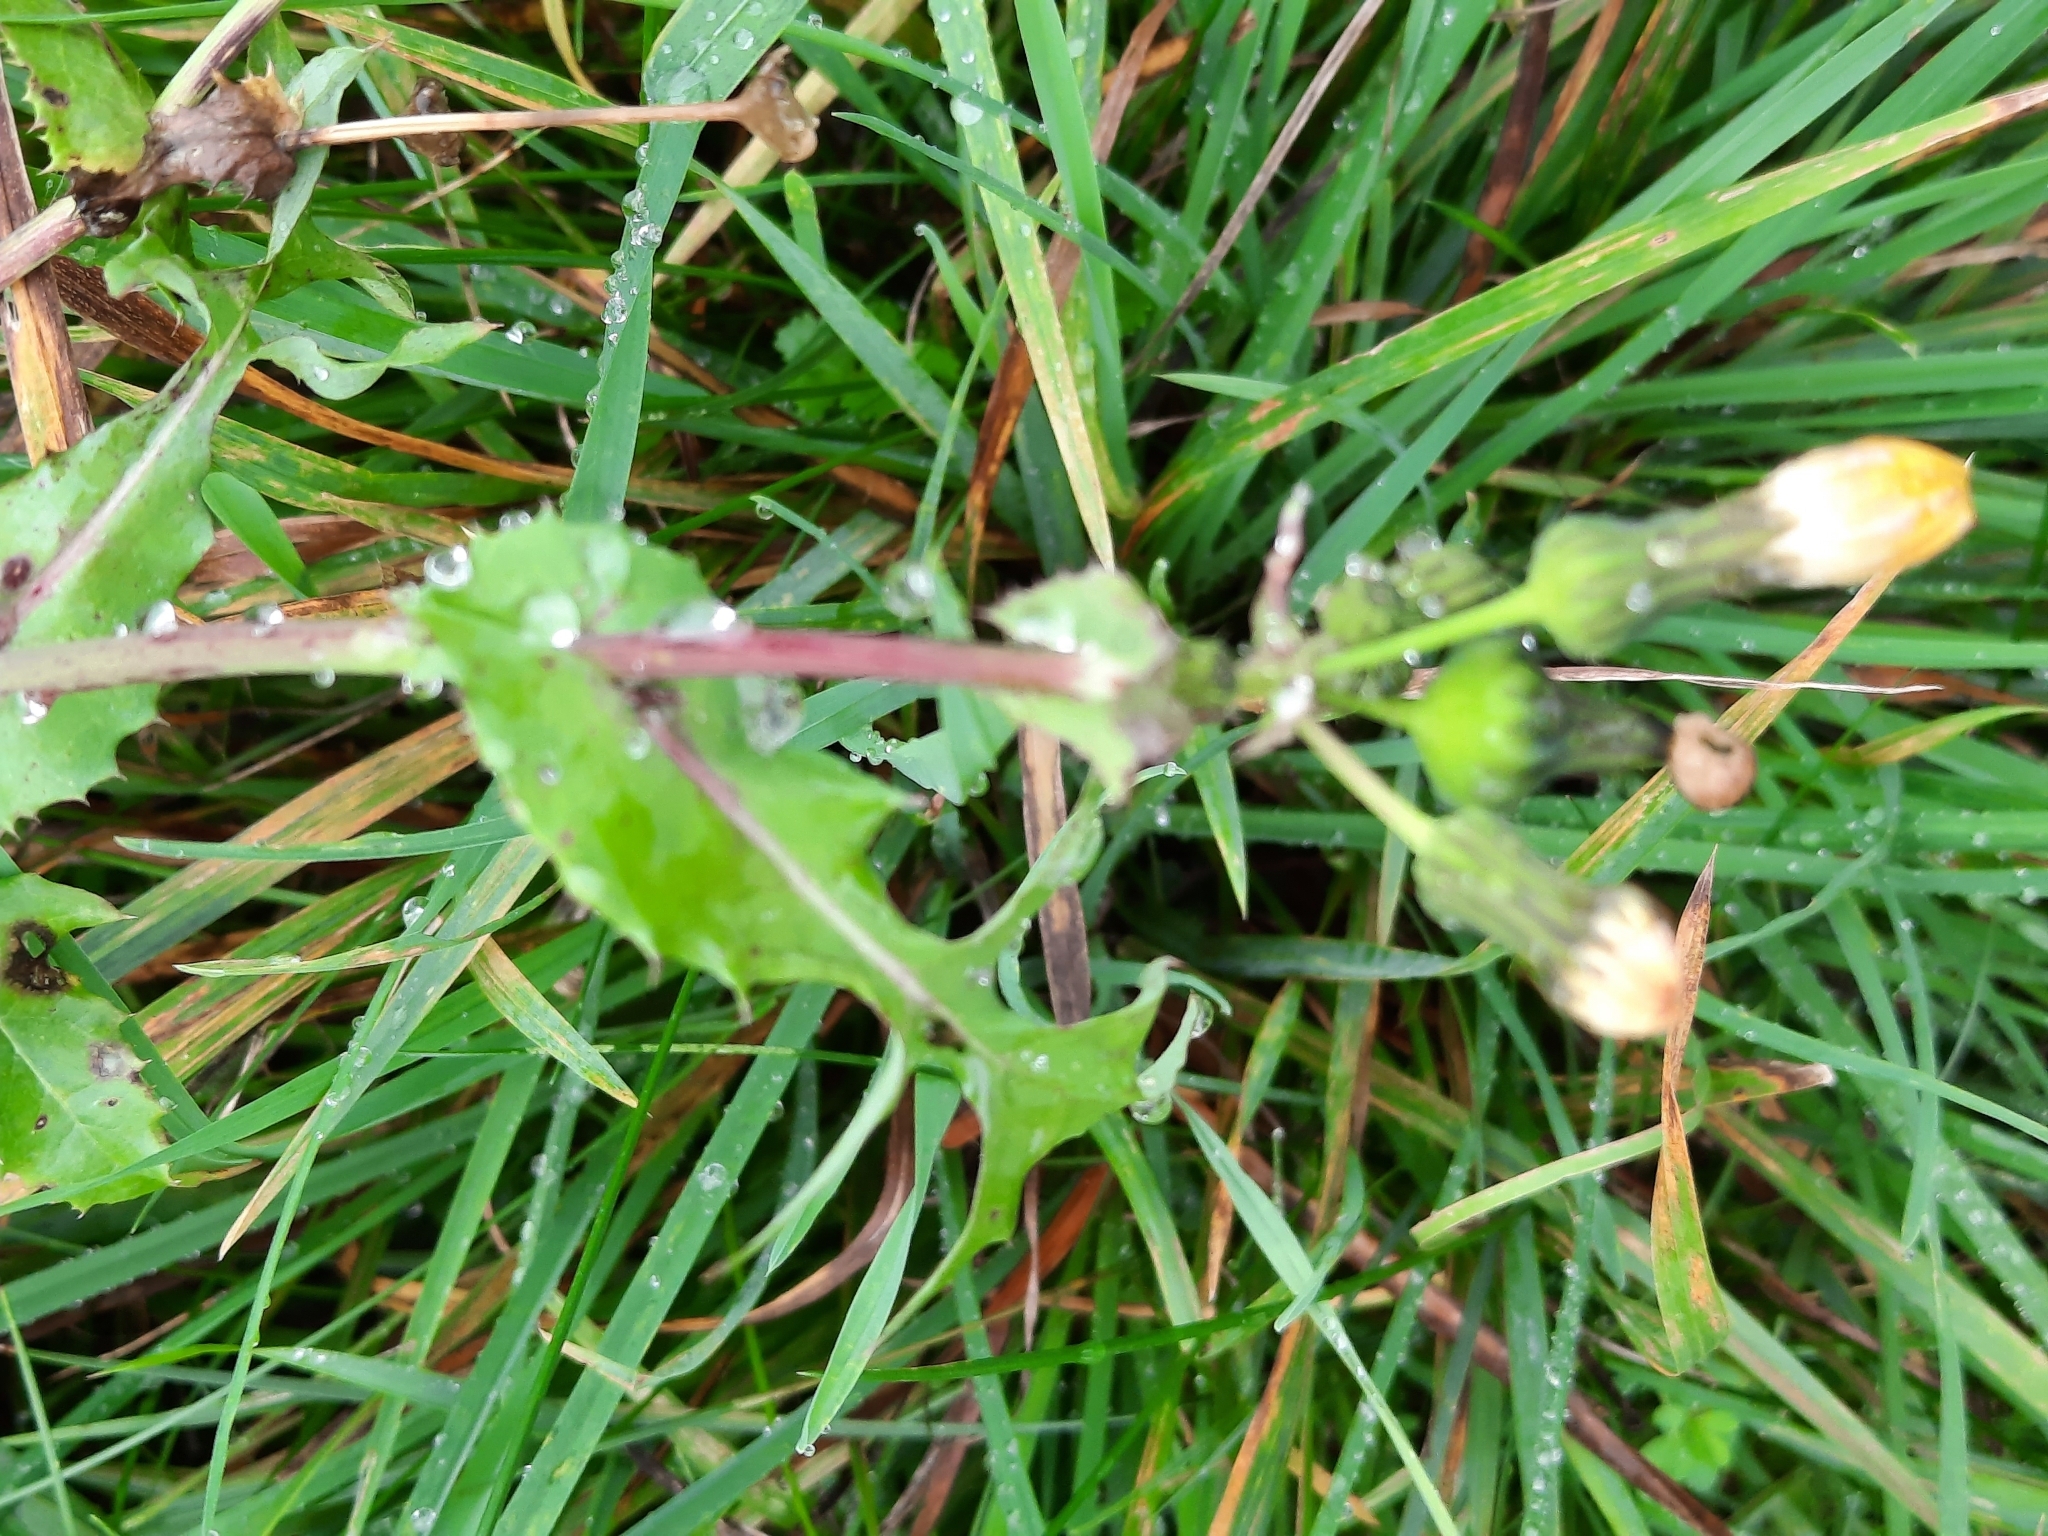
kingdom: Plantae
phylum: Tracheophyta
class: Magnoliopsida
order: Asterales
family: Asteraceae
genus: Sonchus
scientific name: Sonchus oleraceus
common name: Common sowthistle
